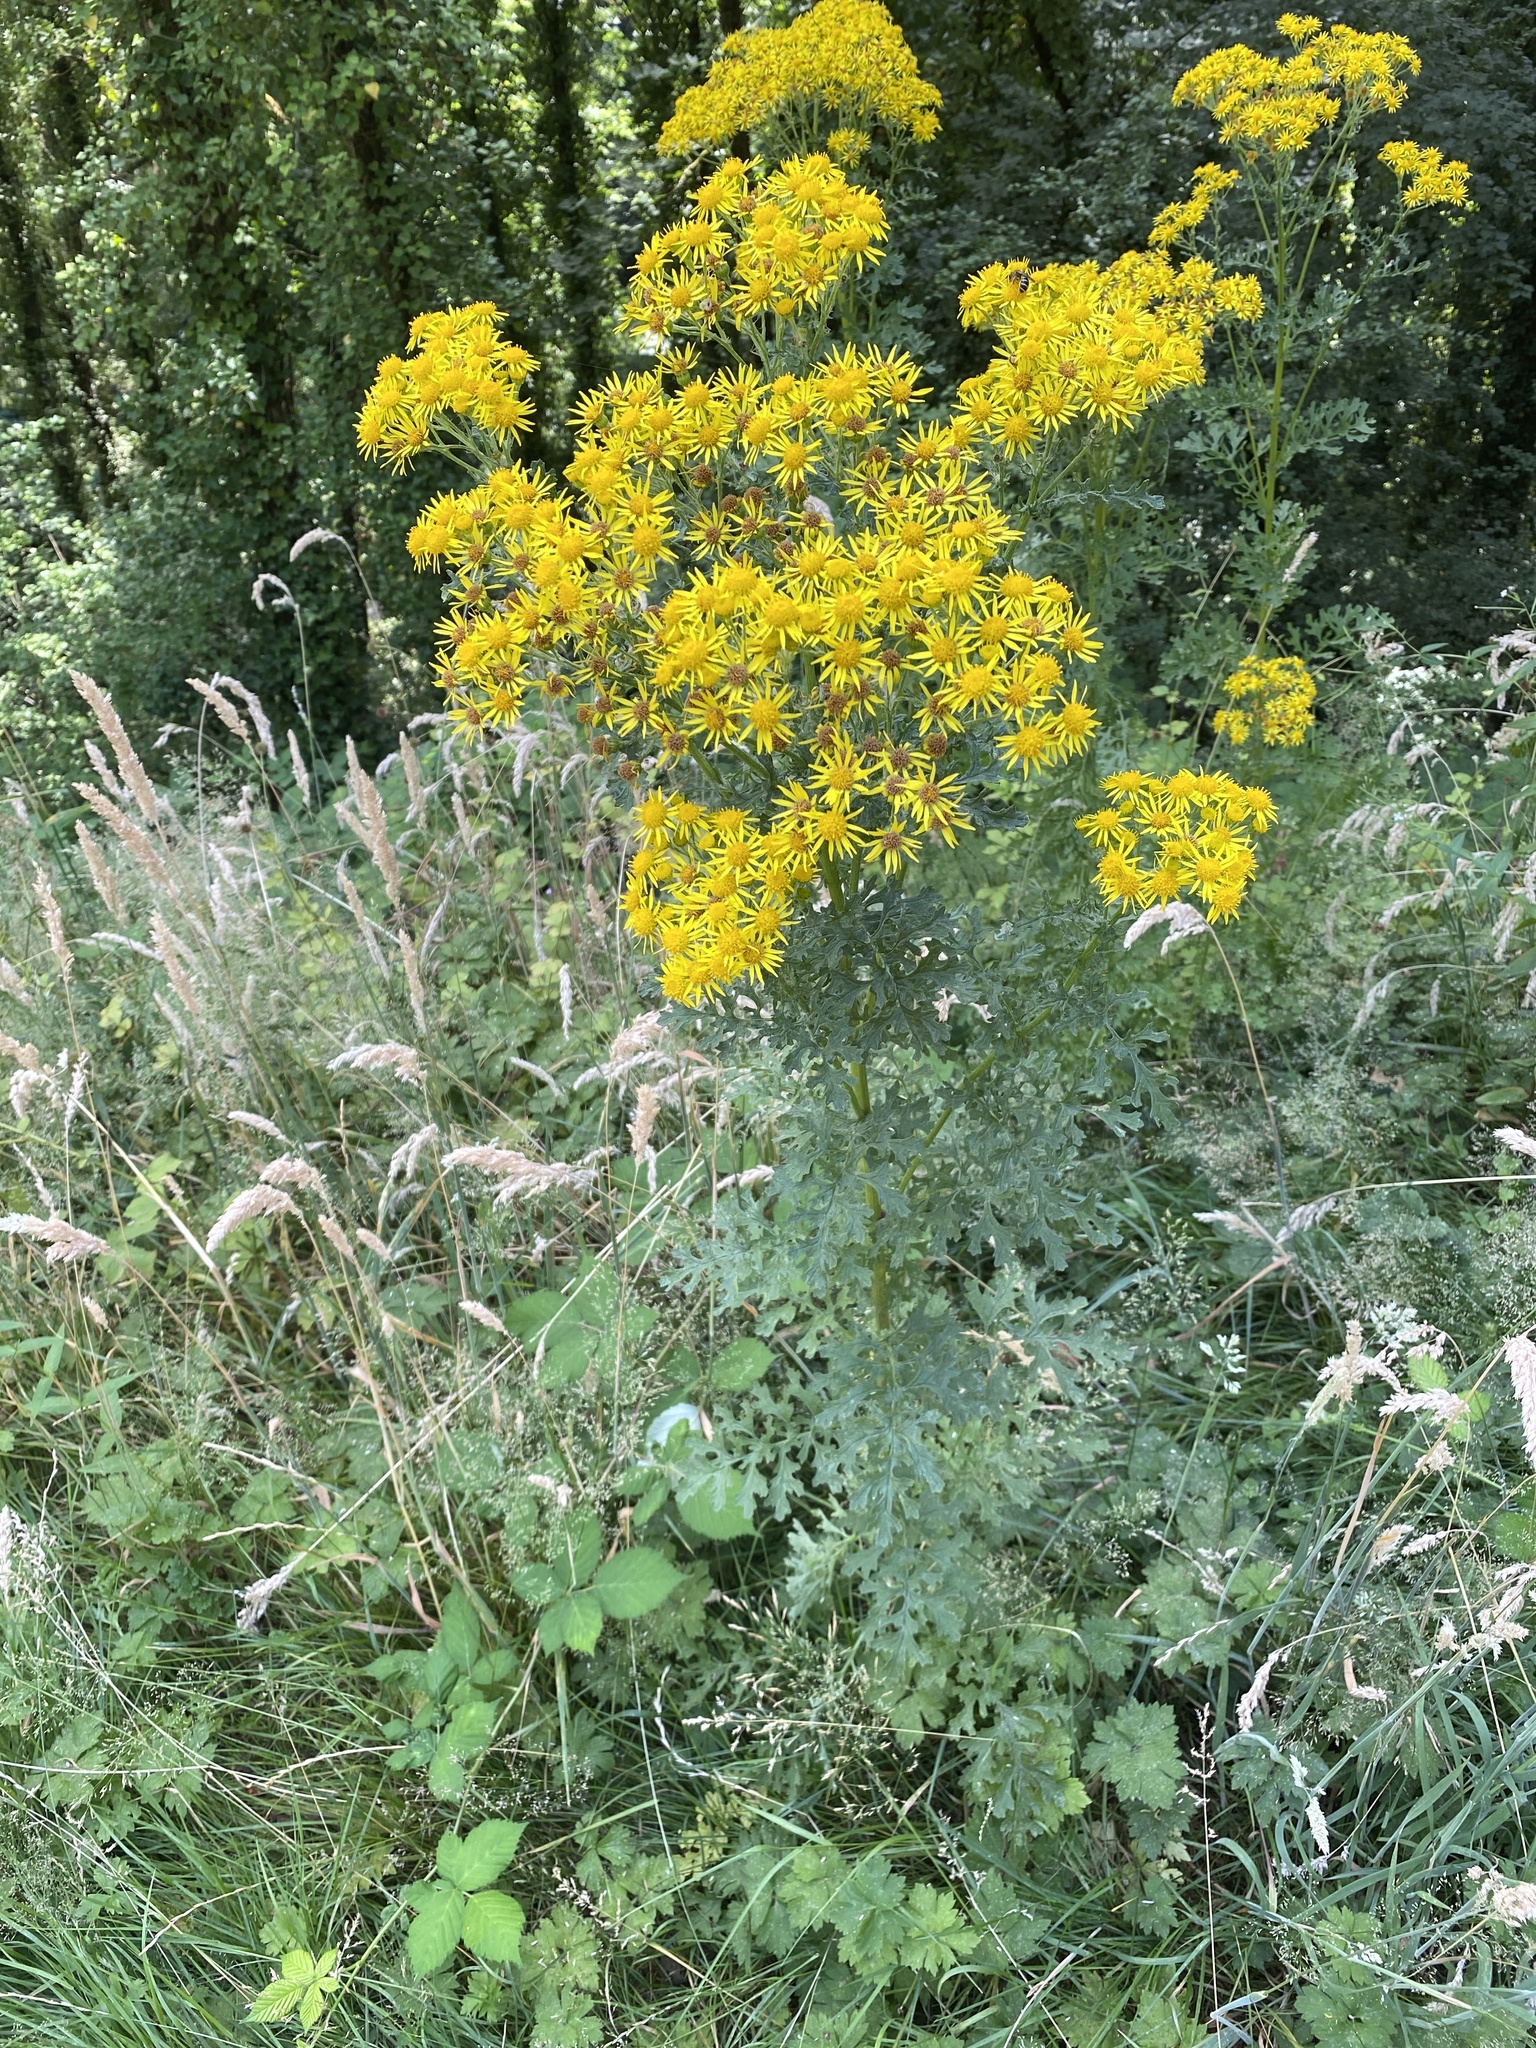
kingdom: Plantae
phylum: Tracheophyta
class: Magnoliopsida
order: Asterales
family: Asteraceae
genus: Jacobaea
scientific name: Jacobaea vulgaris
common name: Stinking willie
